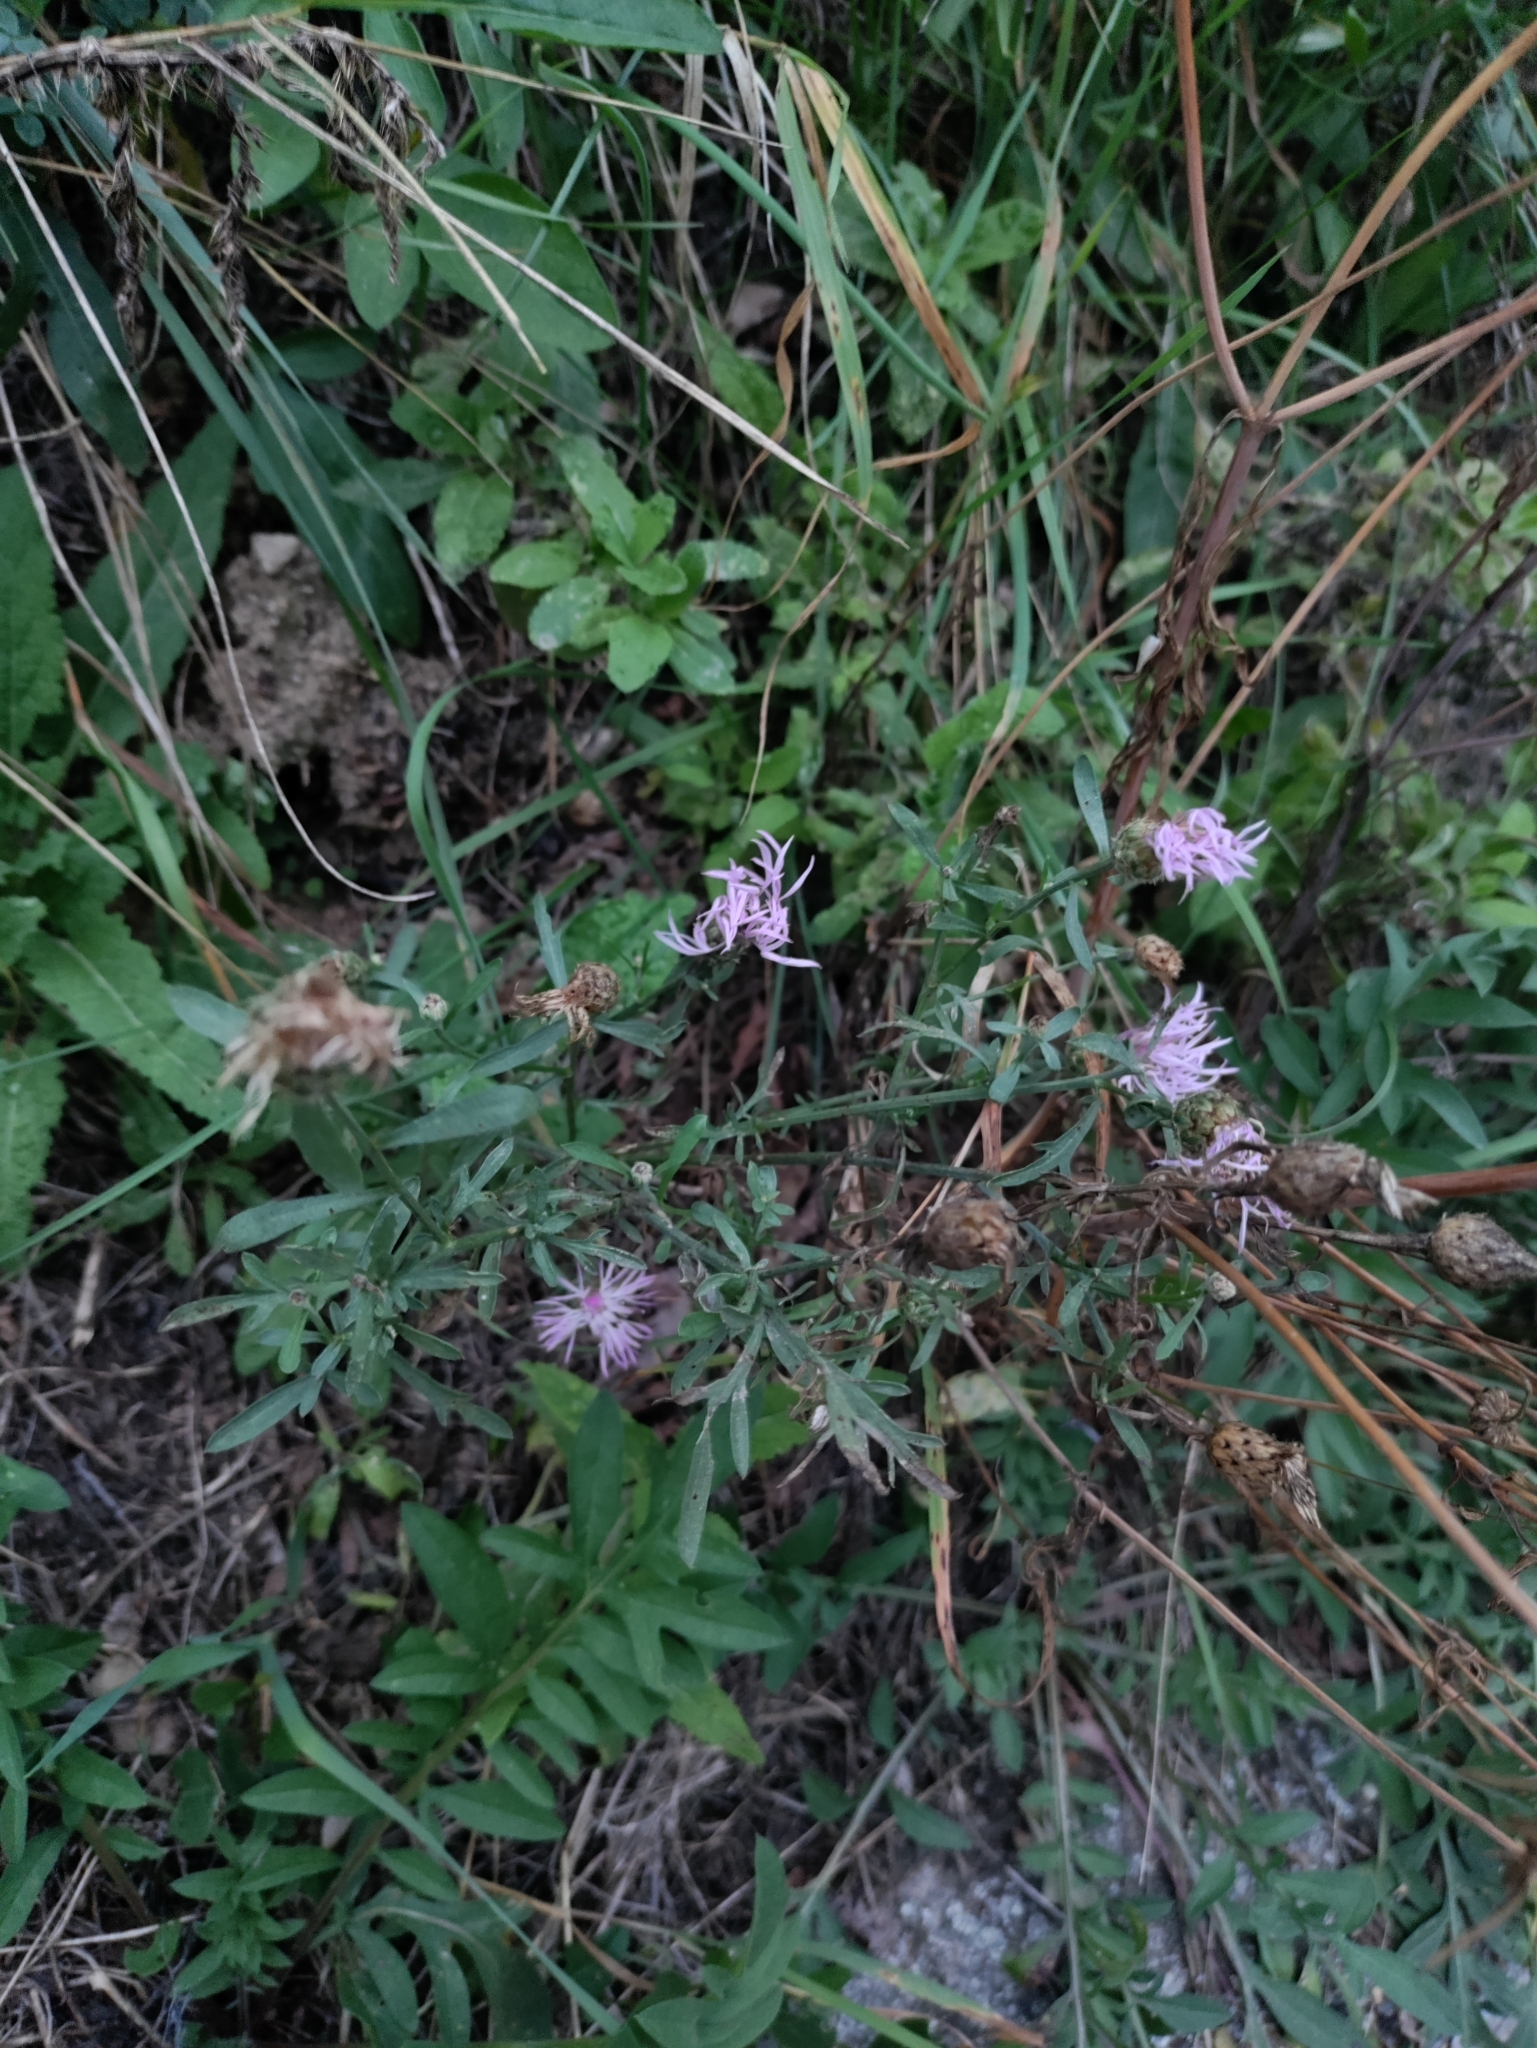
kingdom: Plantae
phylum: Tracheophyta
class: Magnoliopsida
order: Asterales
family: Asteraceae
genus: Centaurea
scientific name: Centaurea stoebe
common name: Spotted knapweed
